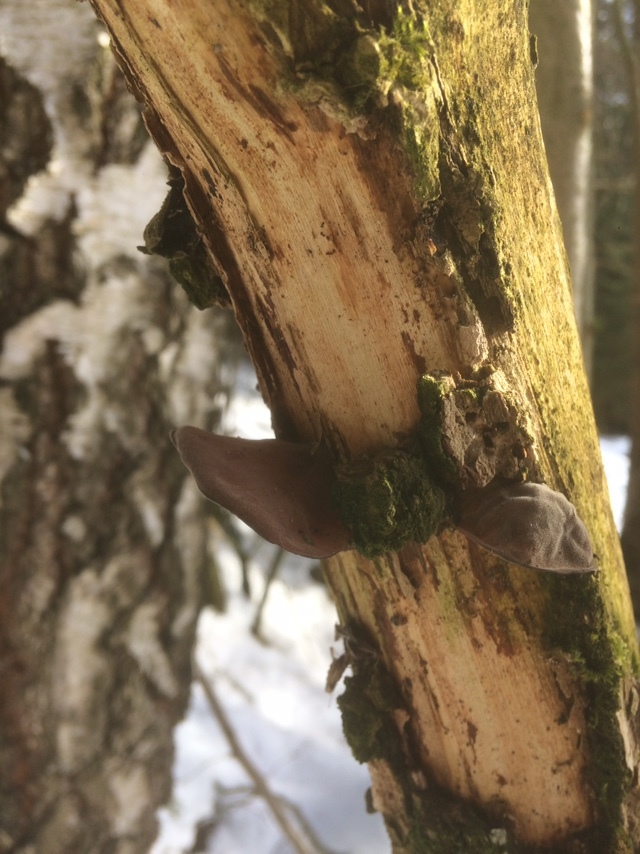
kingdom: Fungi
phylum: Basidiomycota
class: Agaricomycetes
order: Auriculariales
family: Auriculariaceae
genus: Auricularia
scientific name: Auricularia auricula-judae
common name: Jelly ear
